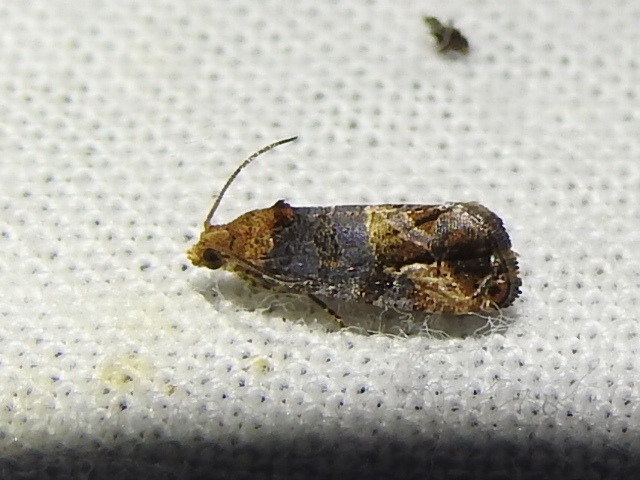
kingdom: Animalia
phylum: Arthropoda
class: Insecta
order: Lepidoptera
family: Tortricidae
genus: Paralobesia
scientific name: Paralobesia viteana
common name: Grape berry moth
